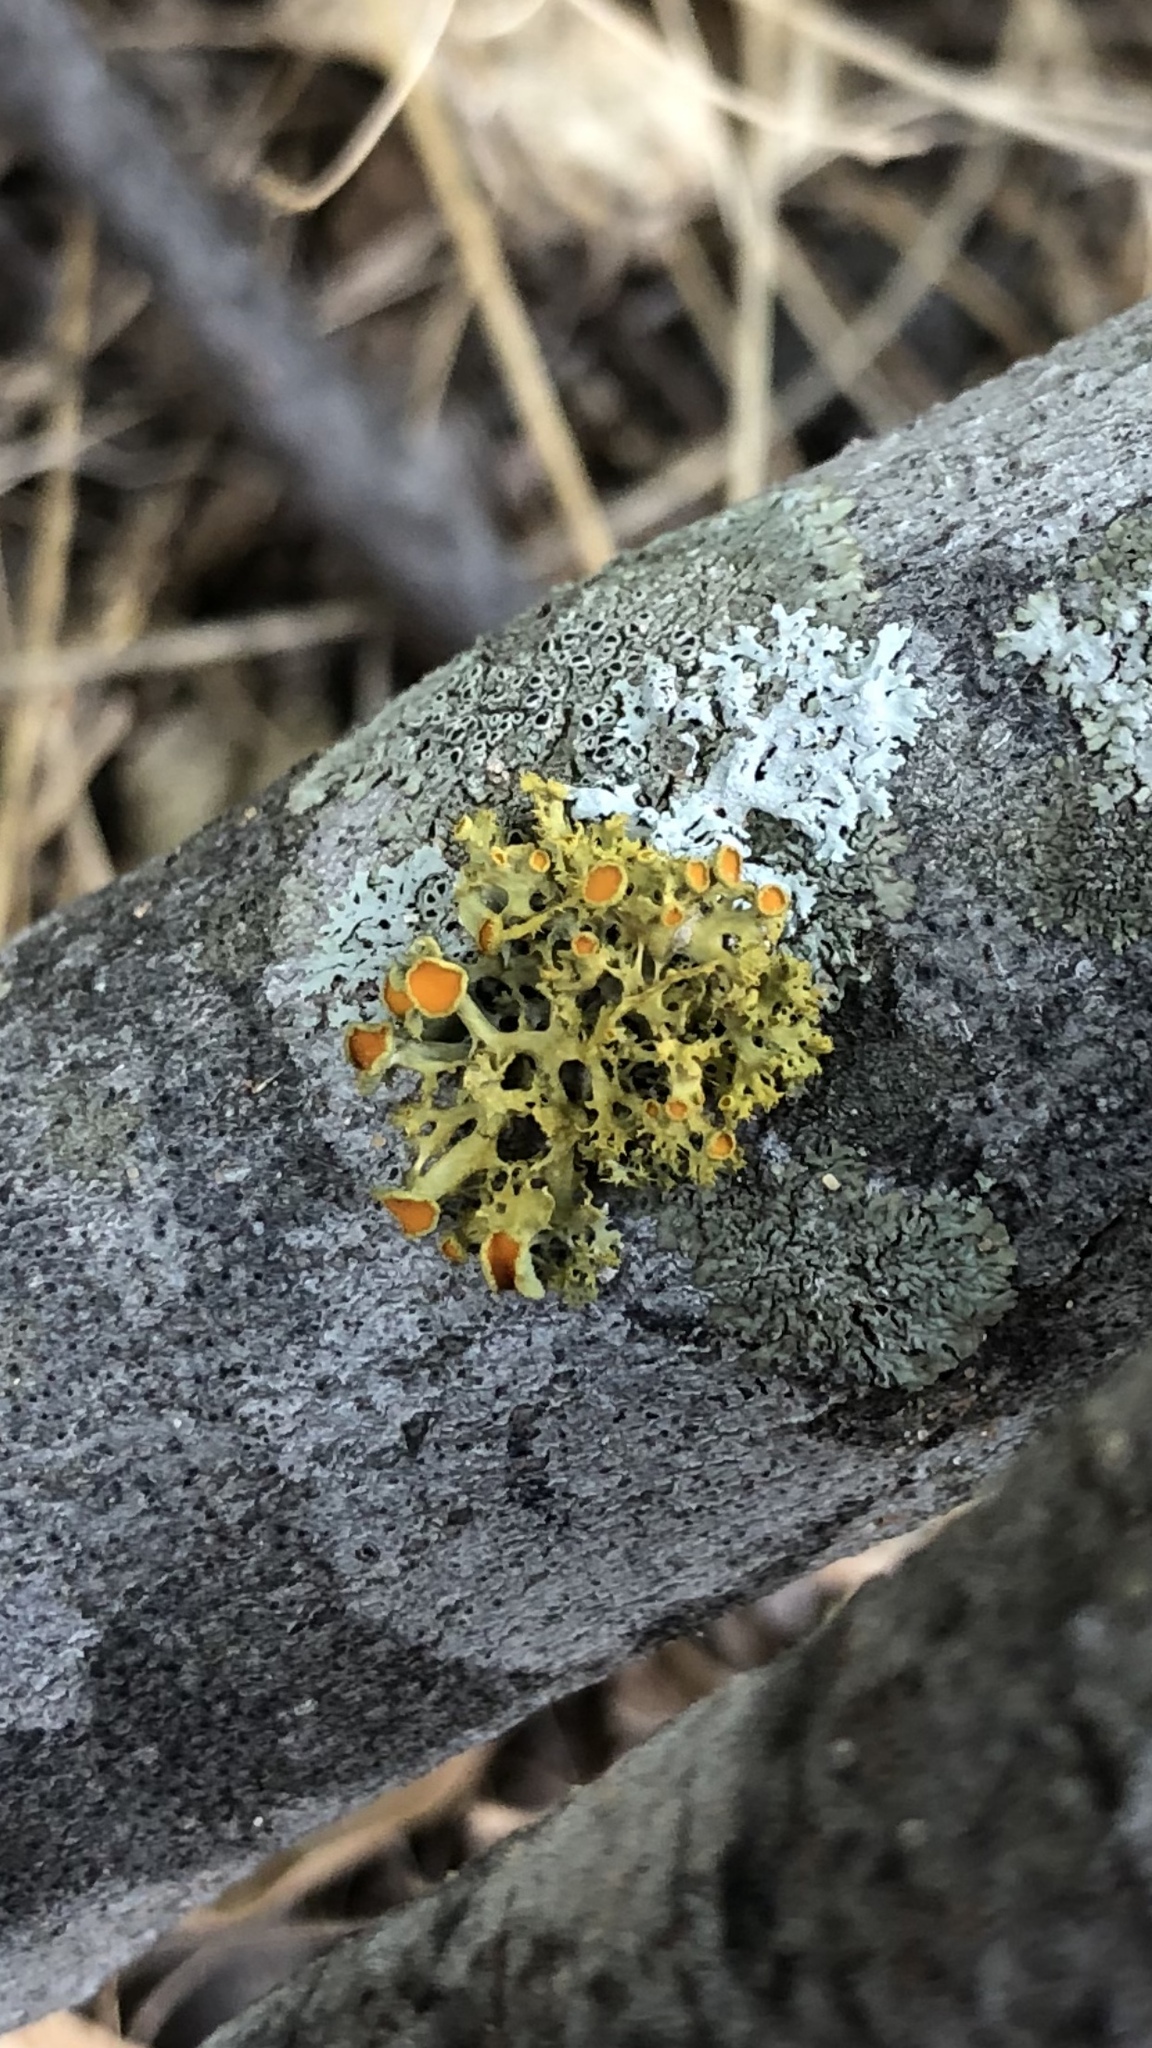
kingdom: Fungi
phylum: Ascomycota
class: Lecanoromycetes
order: Teloschistales
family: Teloschistaceae
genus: Niorma
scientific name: Niorma chrysophthalma
